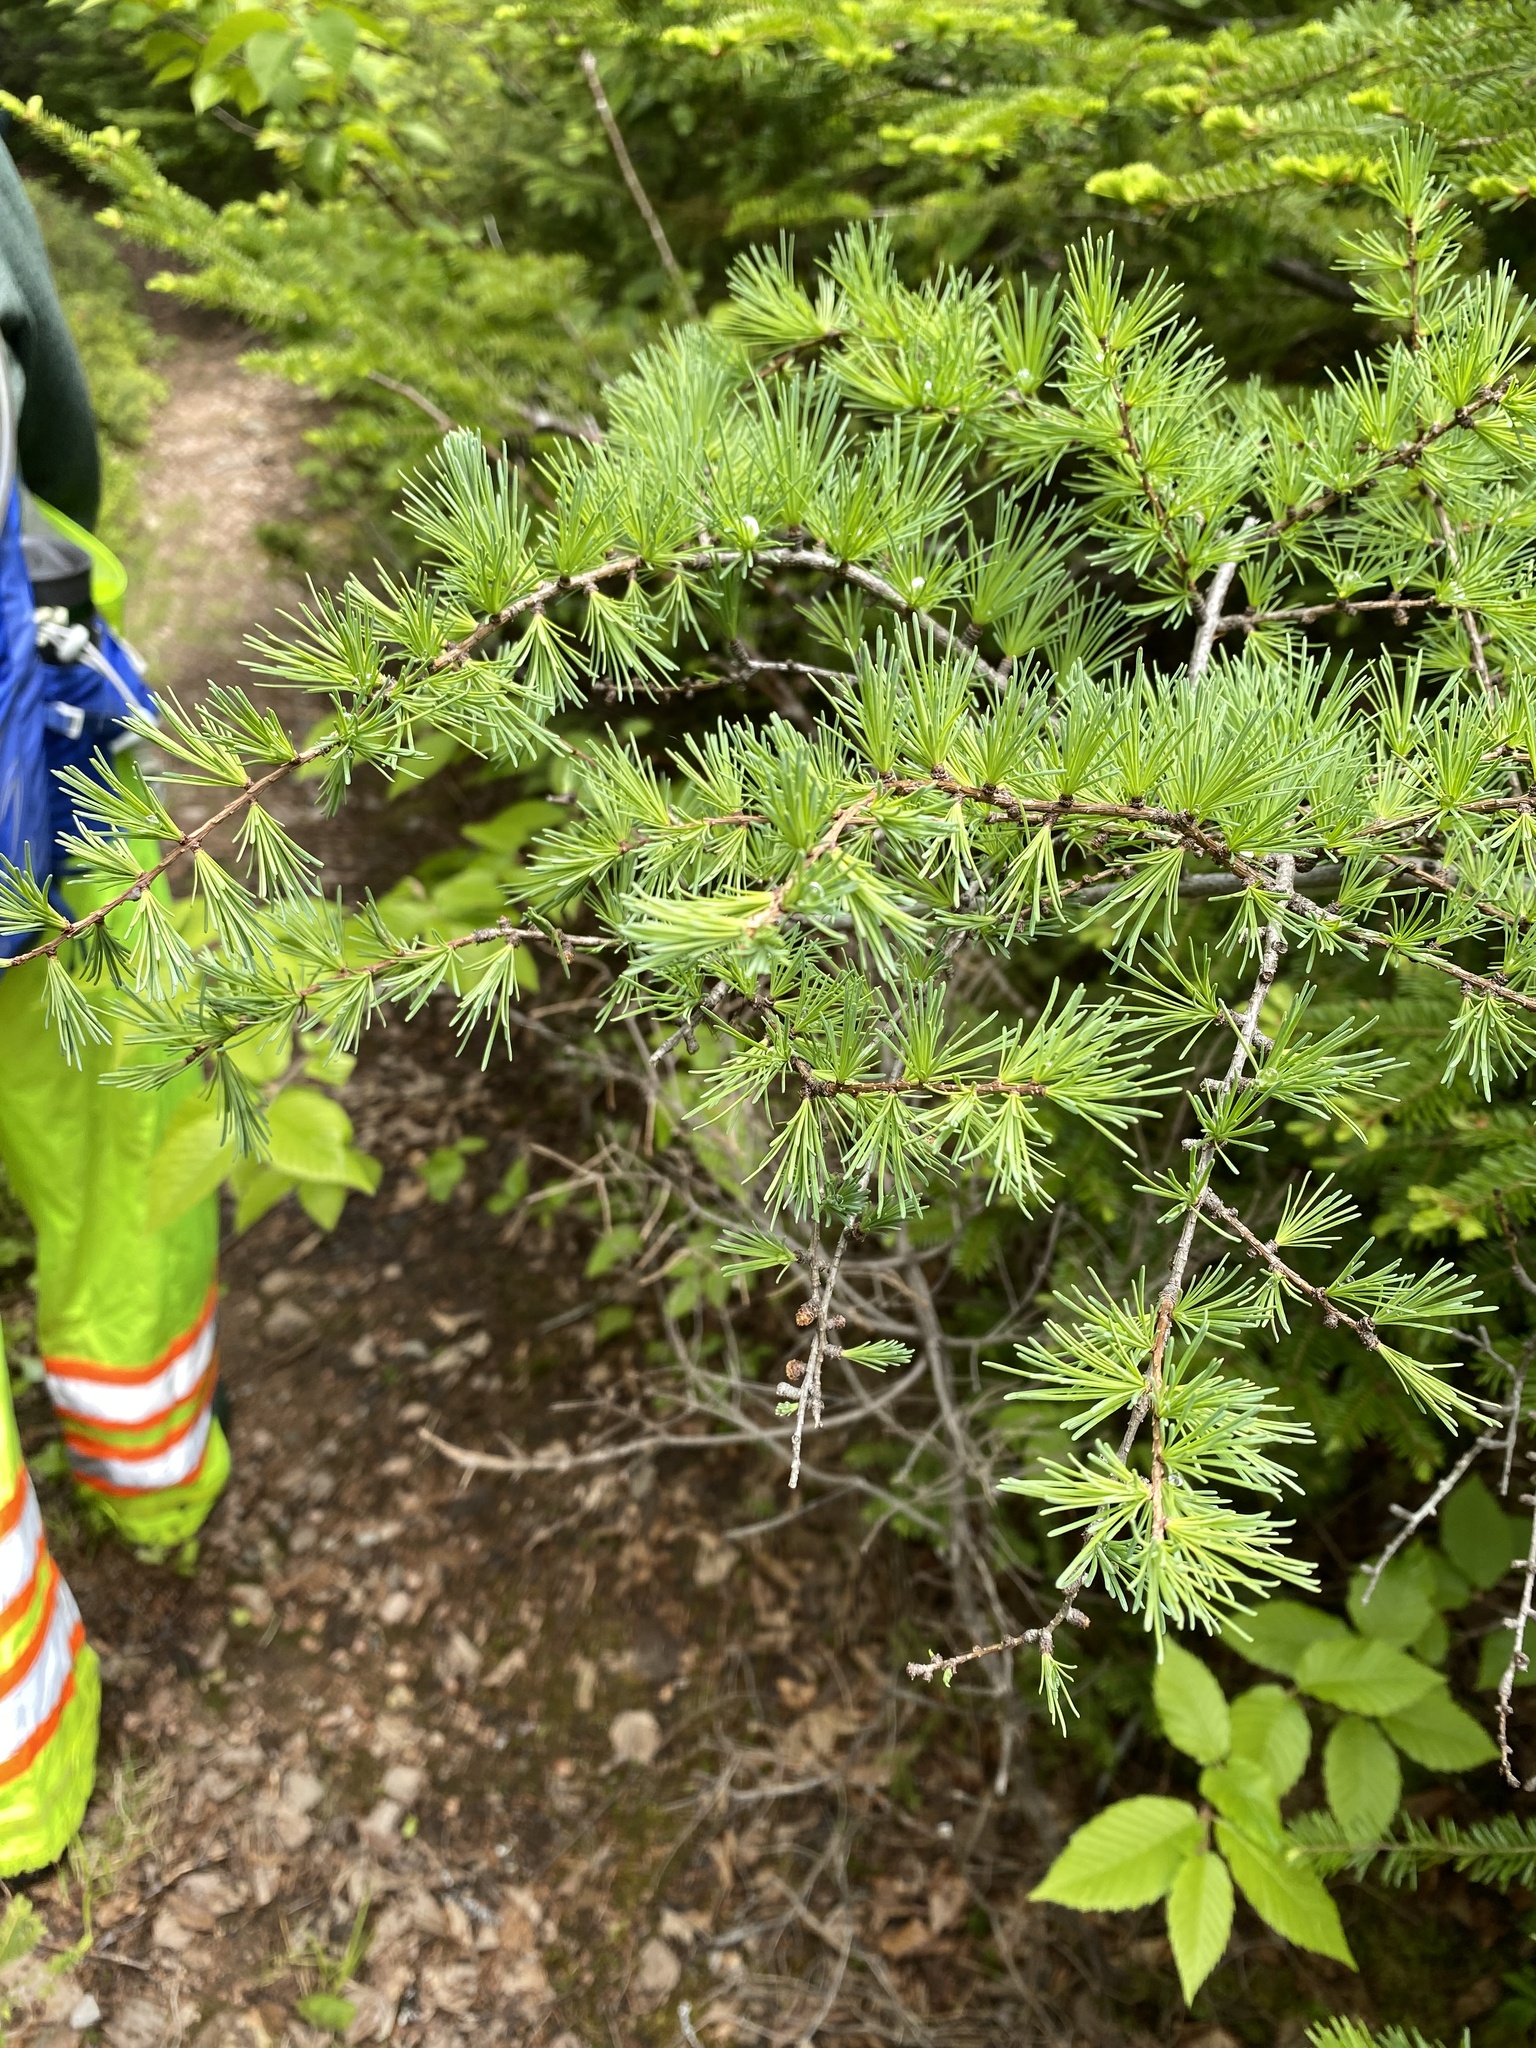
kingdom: Plantae
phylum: Tracheophyta
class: Pinopsida
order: Pinales
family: Pinaceae
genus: Larix
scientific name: Larix laricina
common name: American larch
